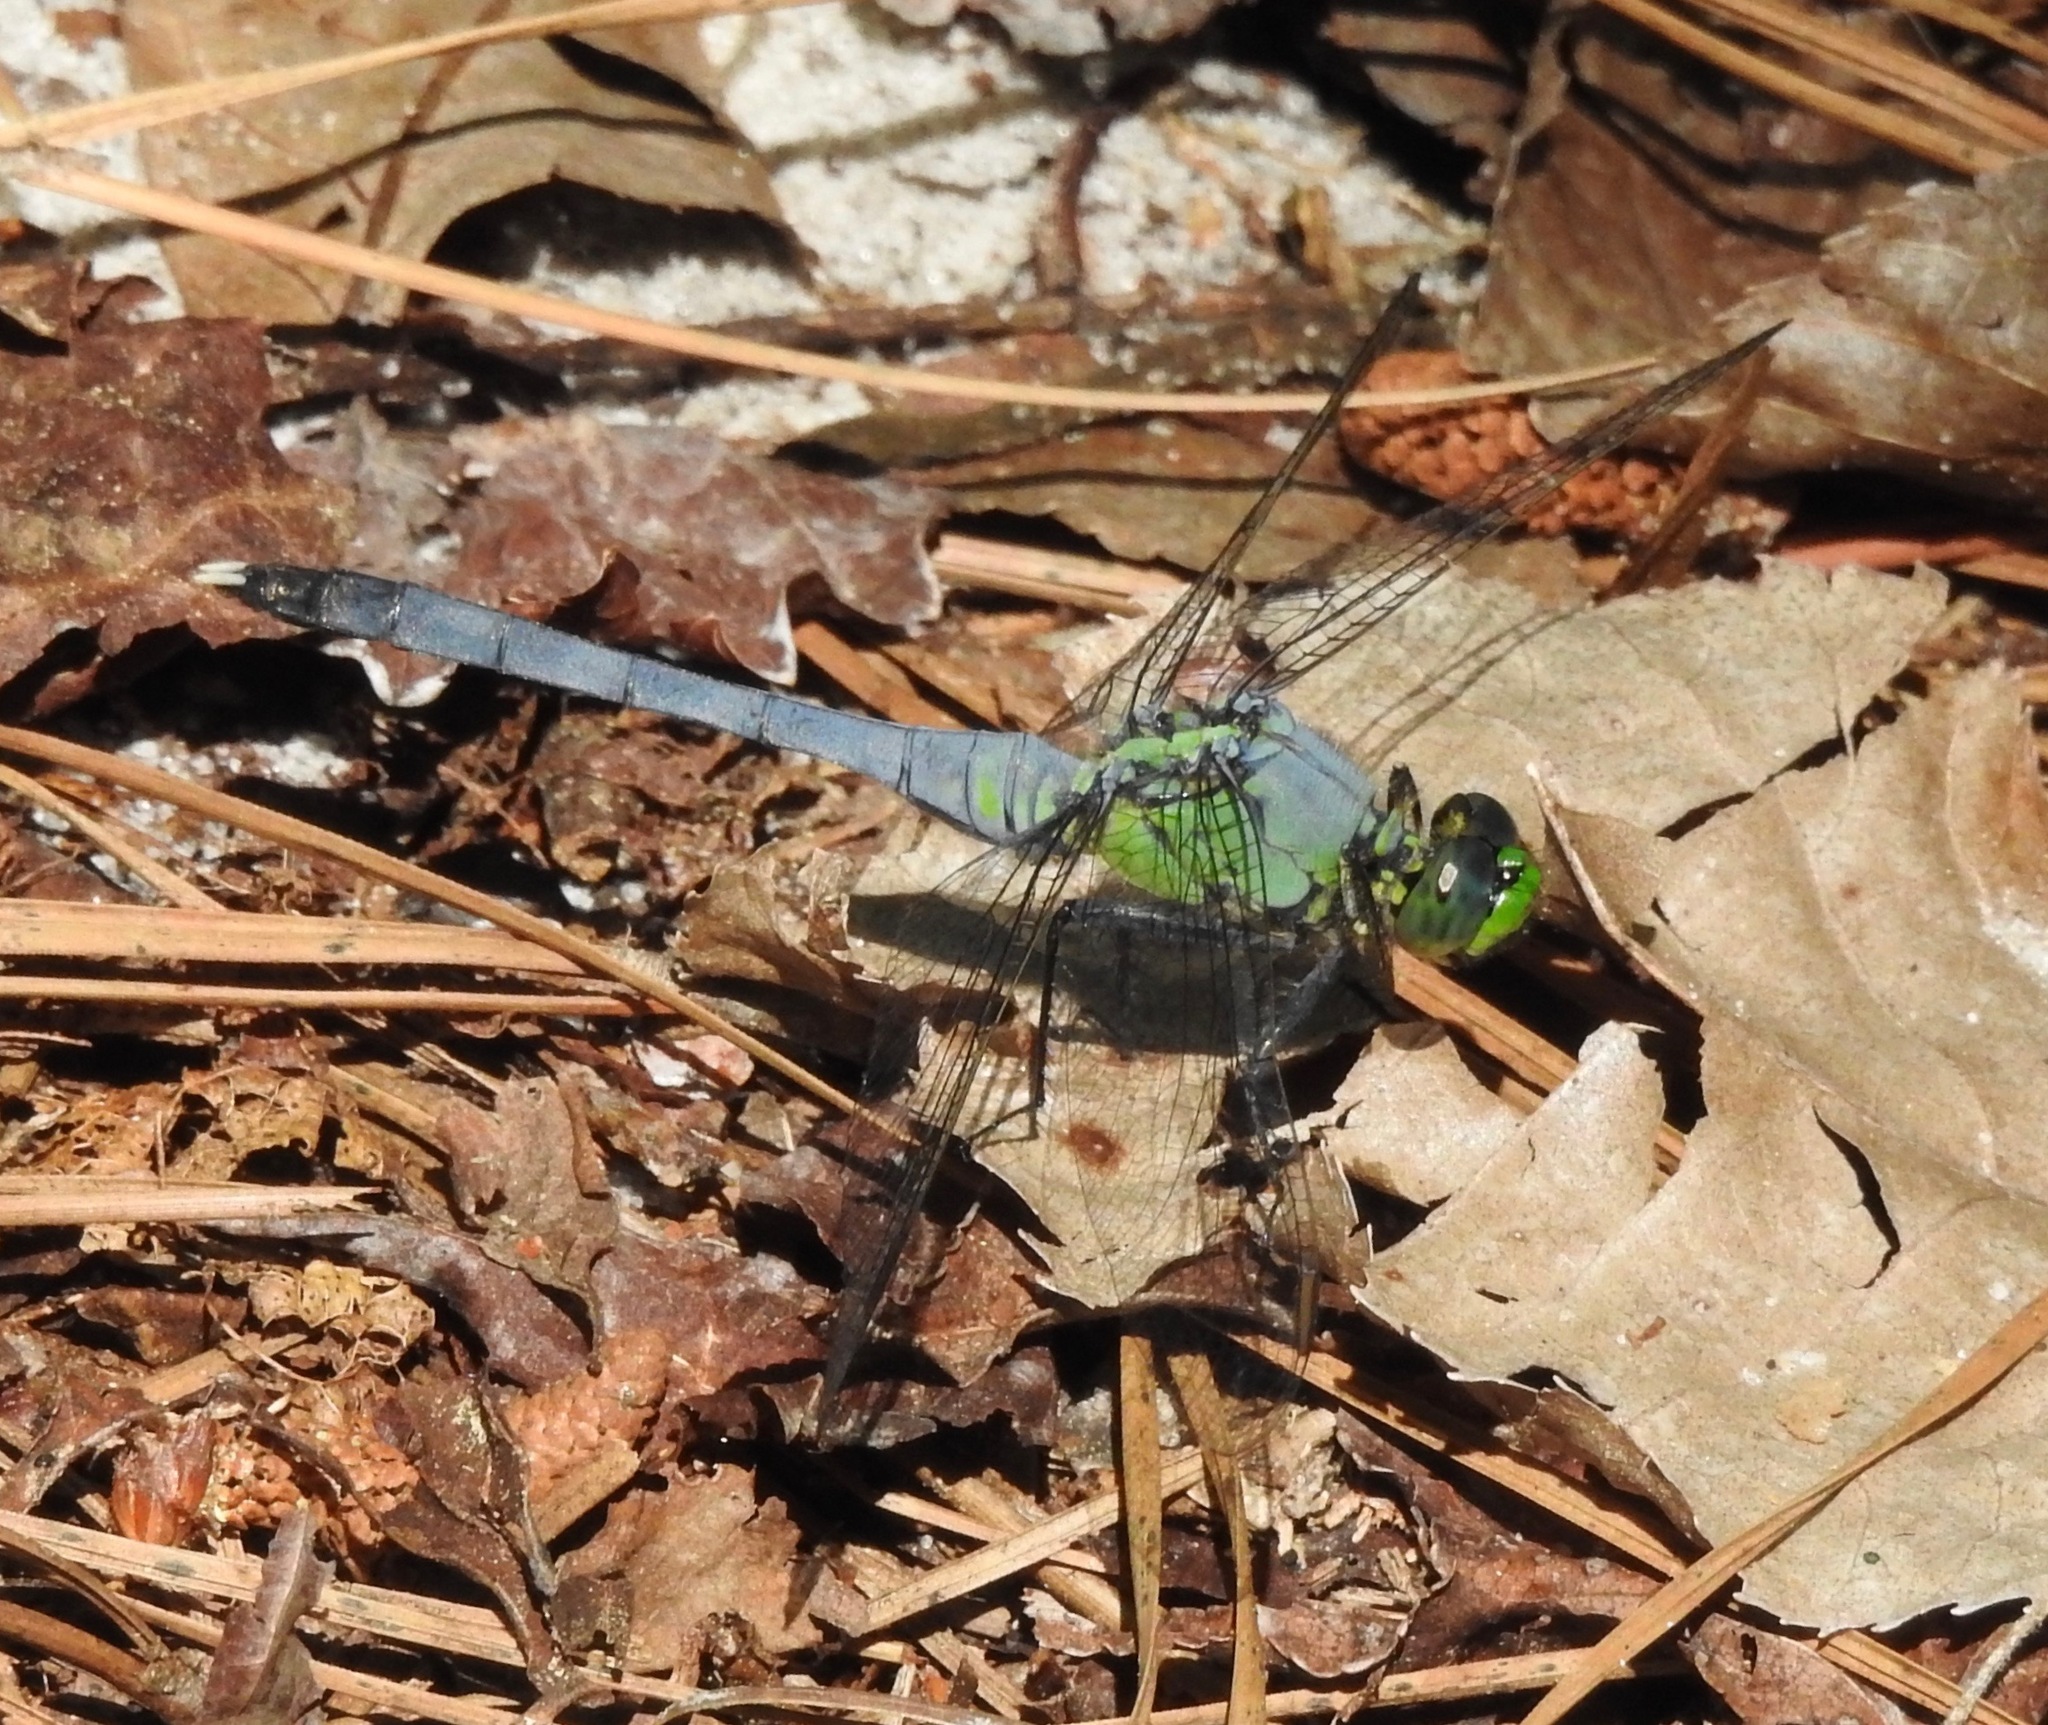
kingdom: Animalia
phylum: Arthropoda
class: Insecta
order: Odonata
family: Libellulidae
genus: Erythemis
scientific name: Erythemis simplicicollis
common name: Eastern pondhawk
